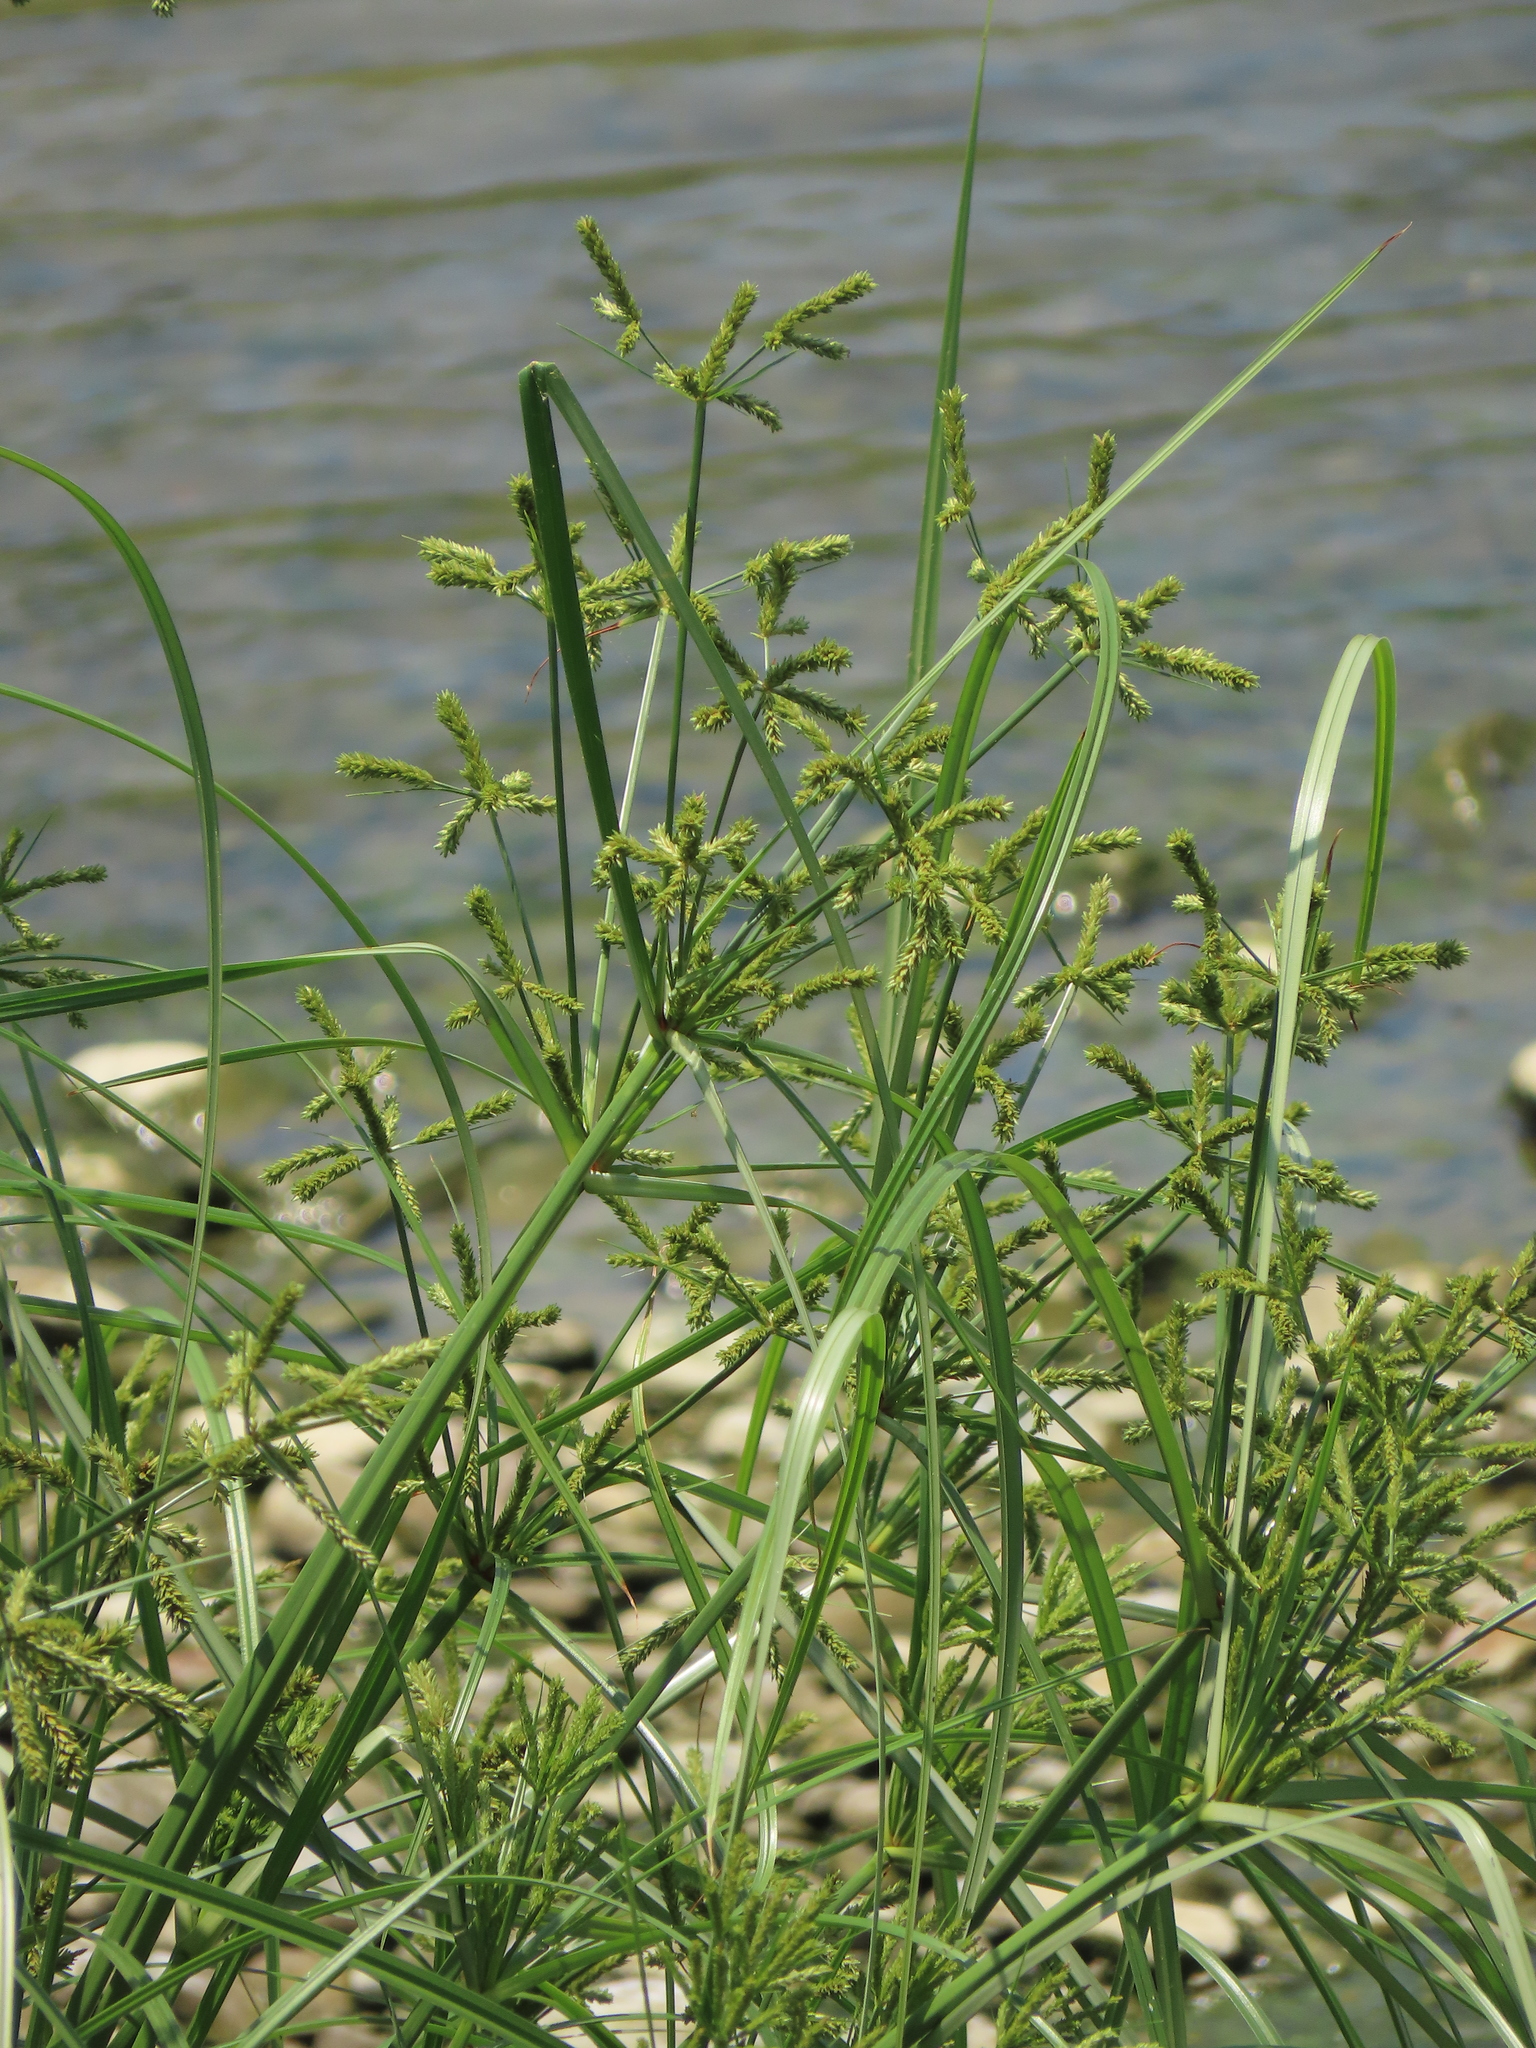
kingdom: Plantae
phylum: Tracheophyta
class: Liliopsida
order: Poales
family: Cyperaceae
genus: Cyperus
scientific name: Cyperus imbricatus
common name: Shingle flatsedge
